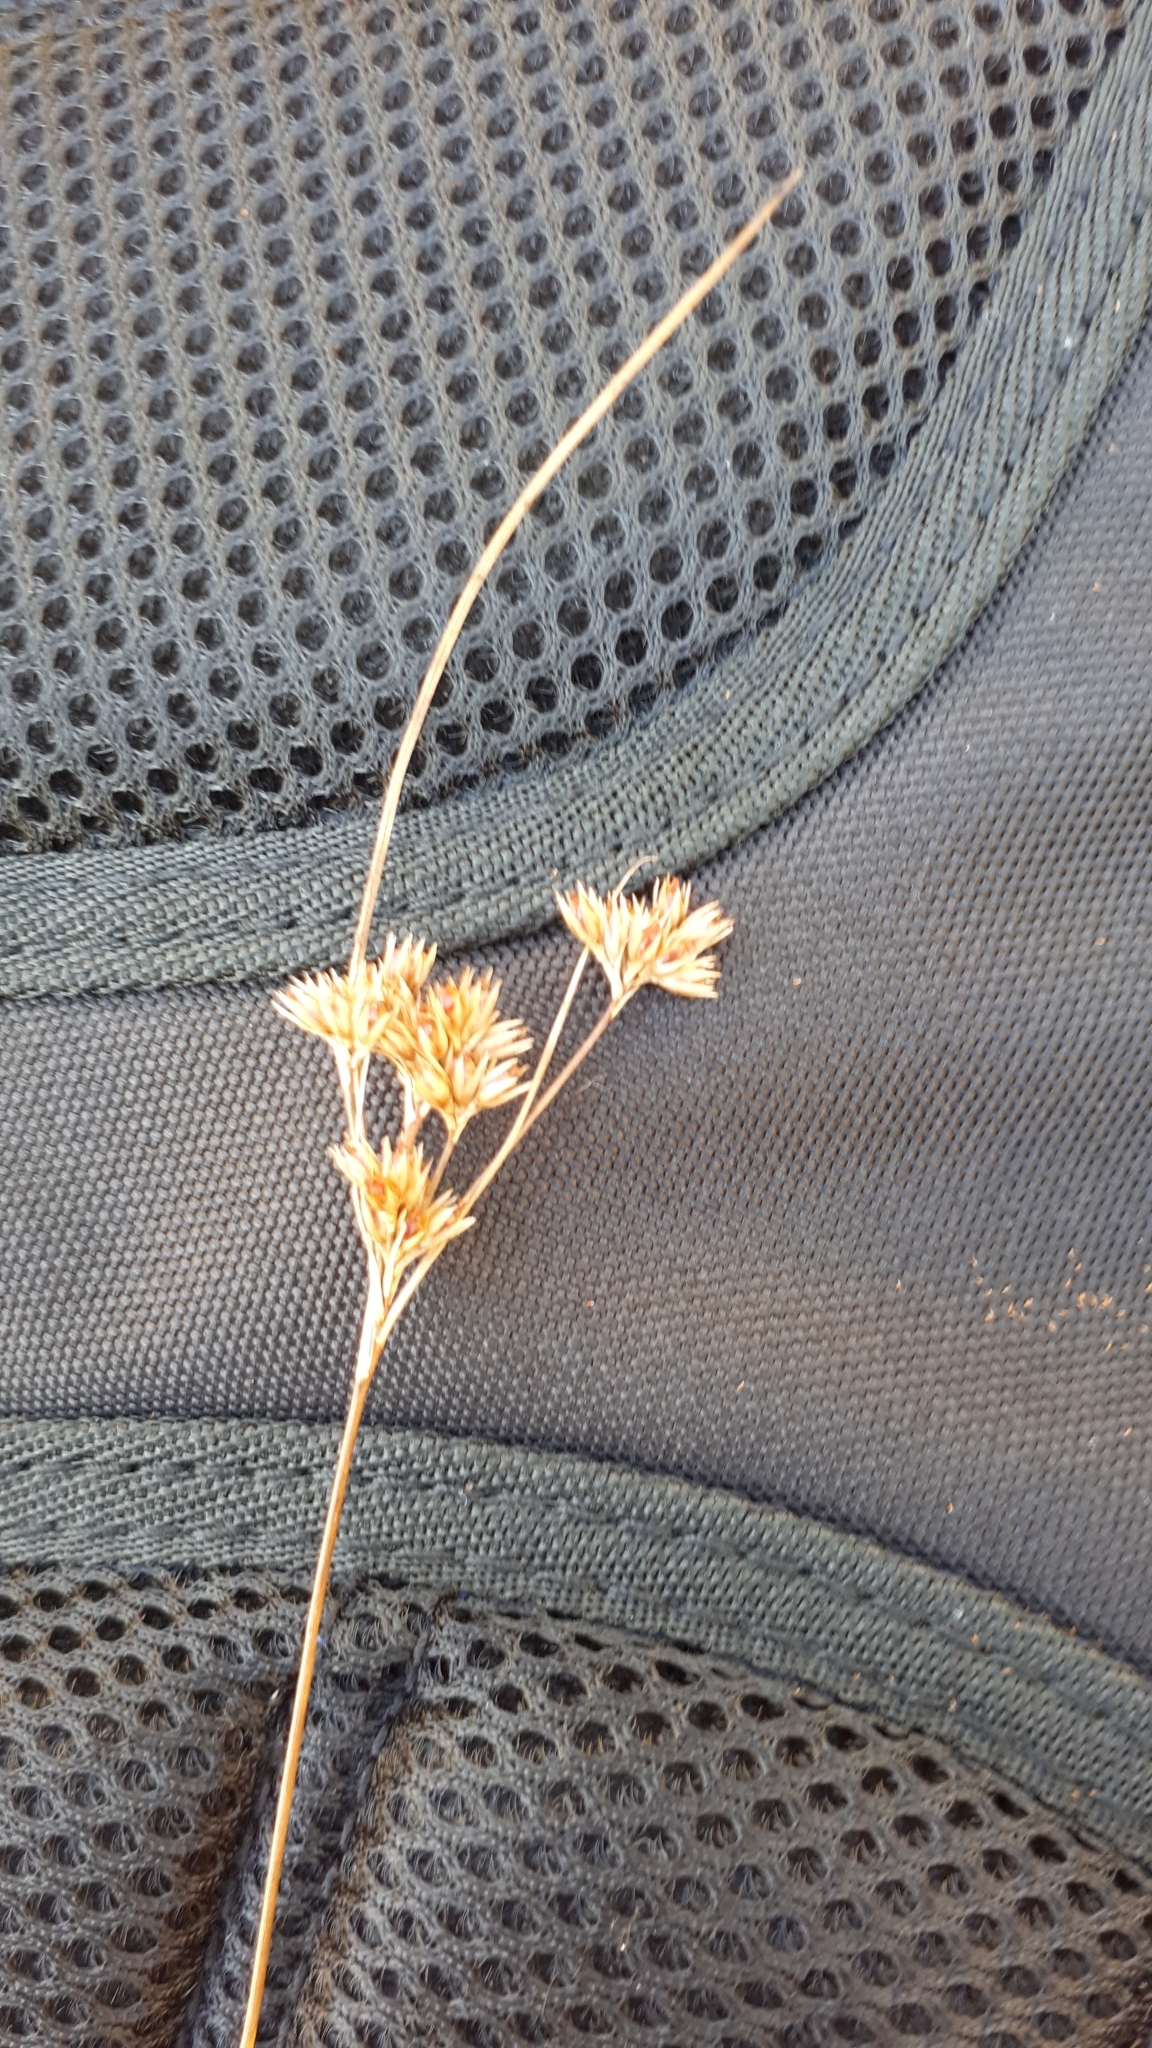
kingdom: Plantae
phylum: Tracheophyta
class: Liliopsida
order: Poales
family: Juncaceae
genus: Juncus
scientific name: Juncus occidentalis
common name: Western rush
